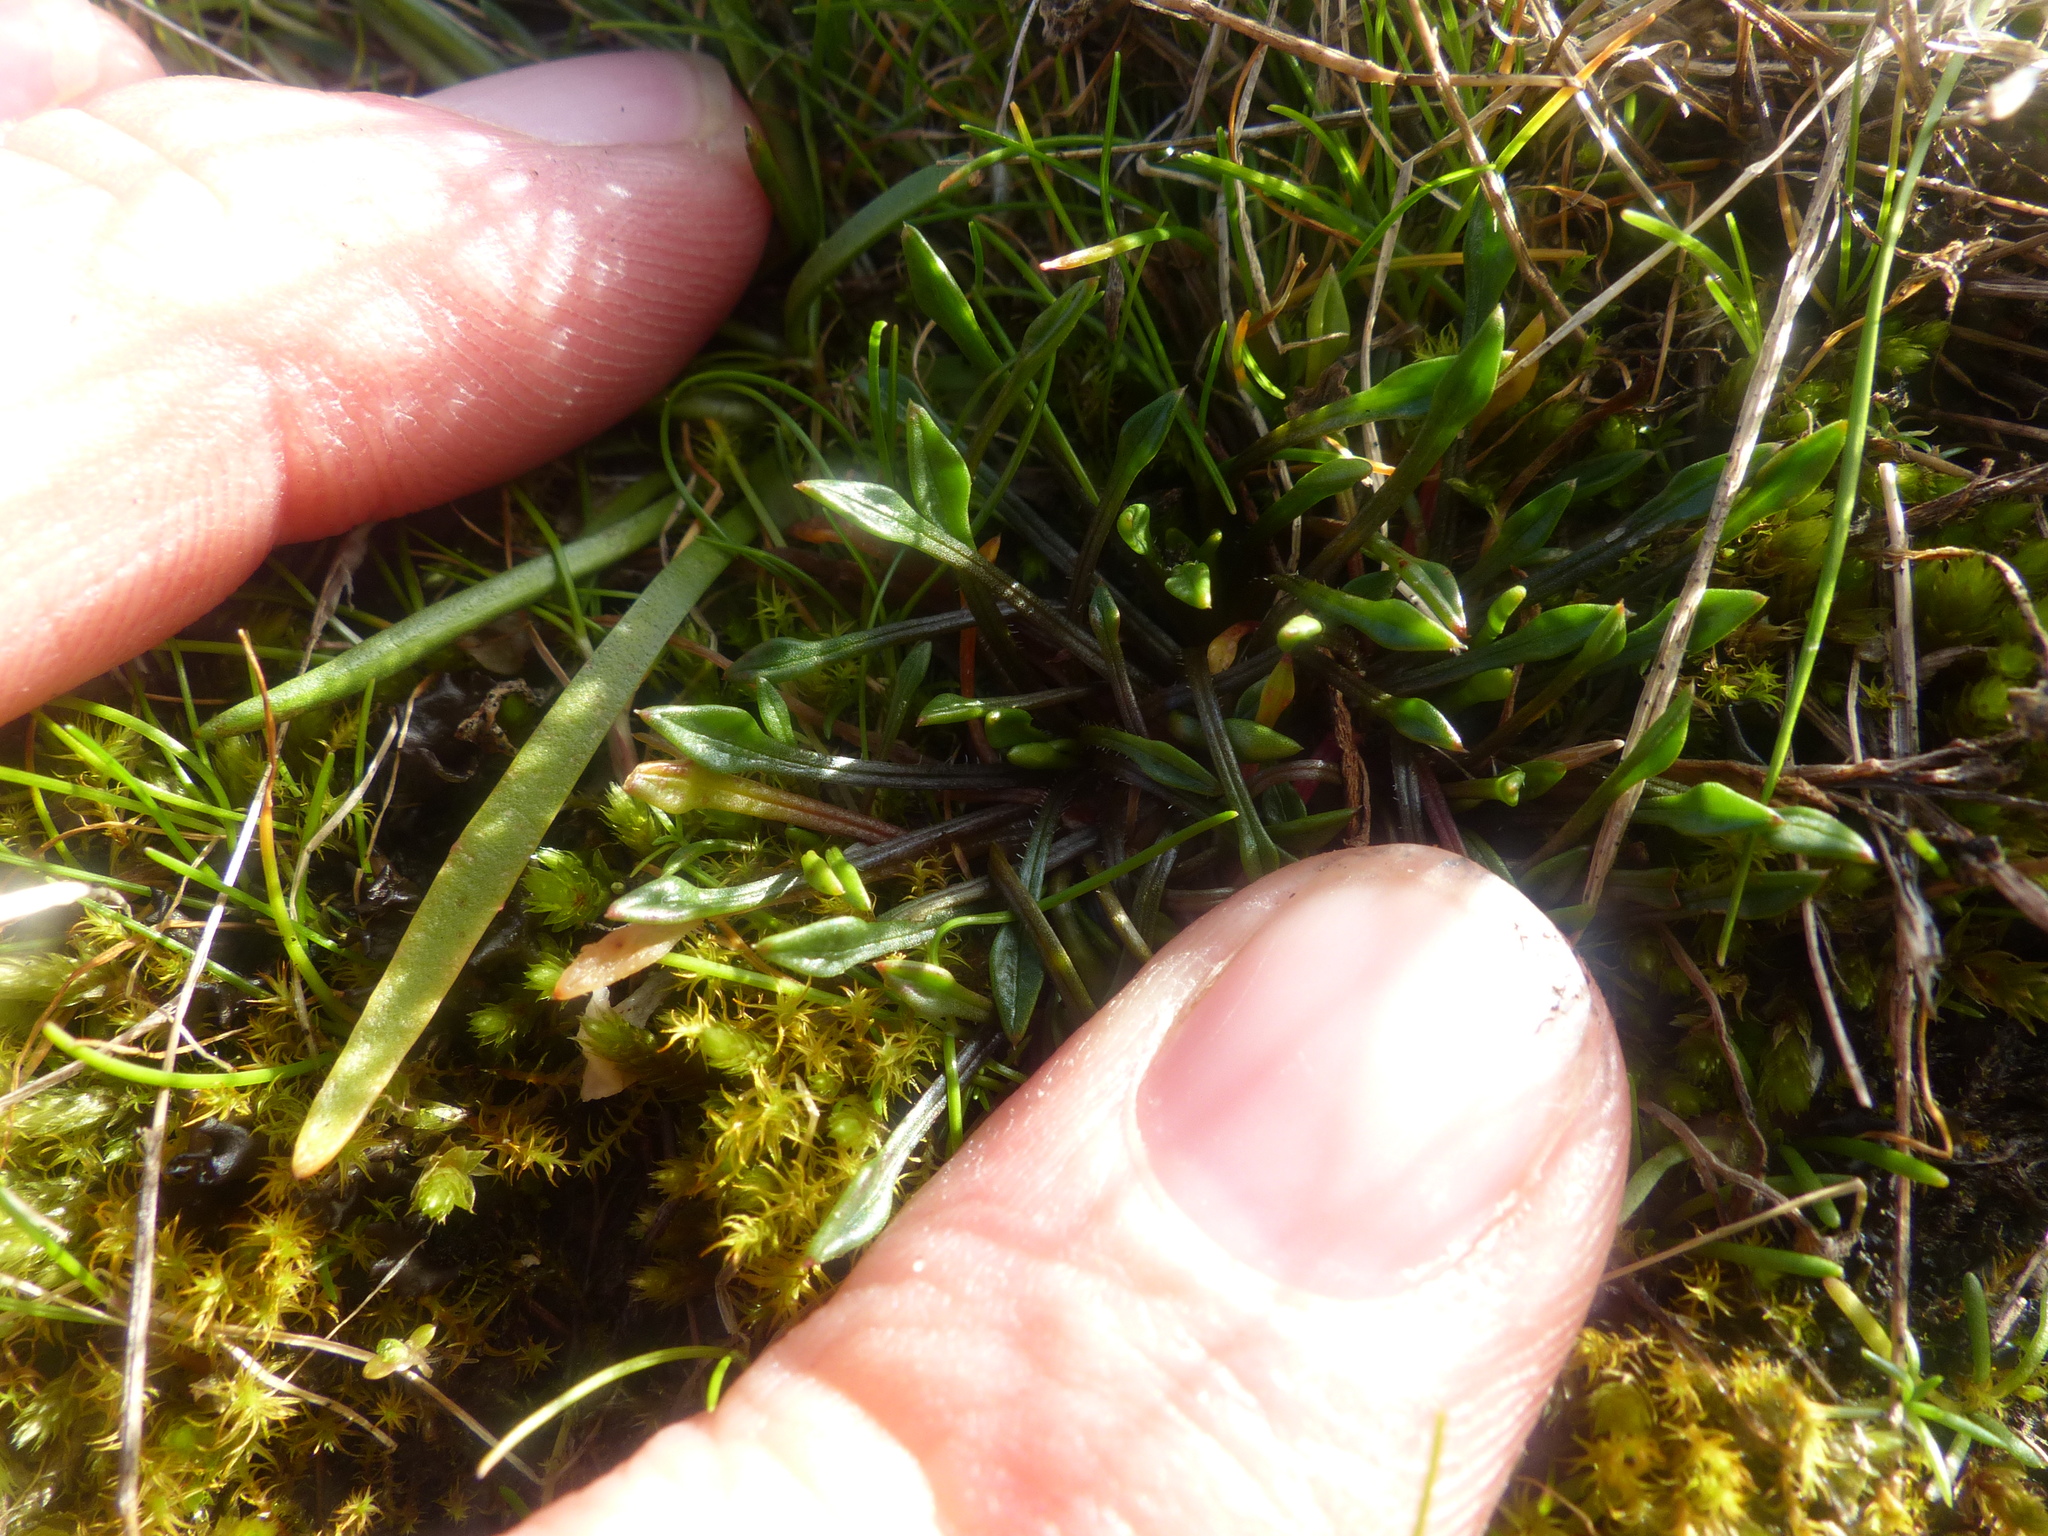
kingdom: Plantae
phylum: Tracheophyta
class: Magnoliopsida
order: Caryophyllales
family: Montiaceae
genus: Calandrinia
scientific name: Calandrinia menziesii
